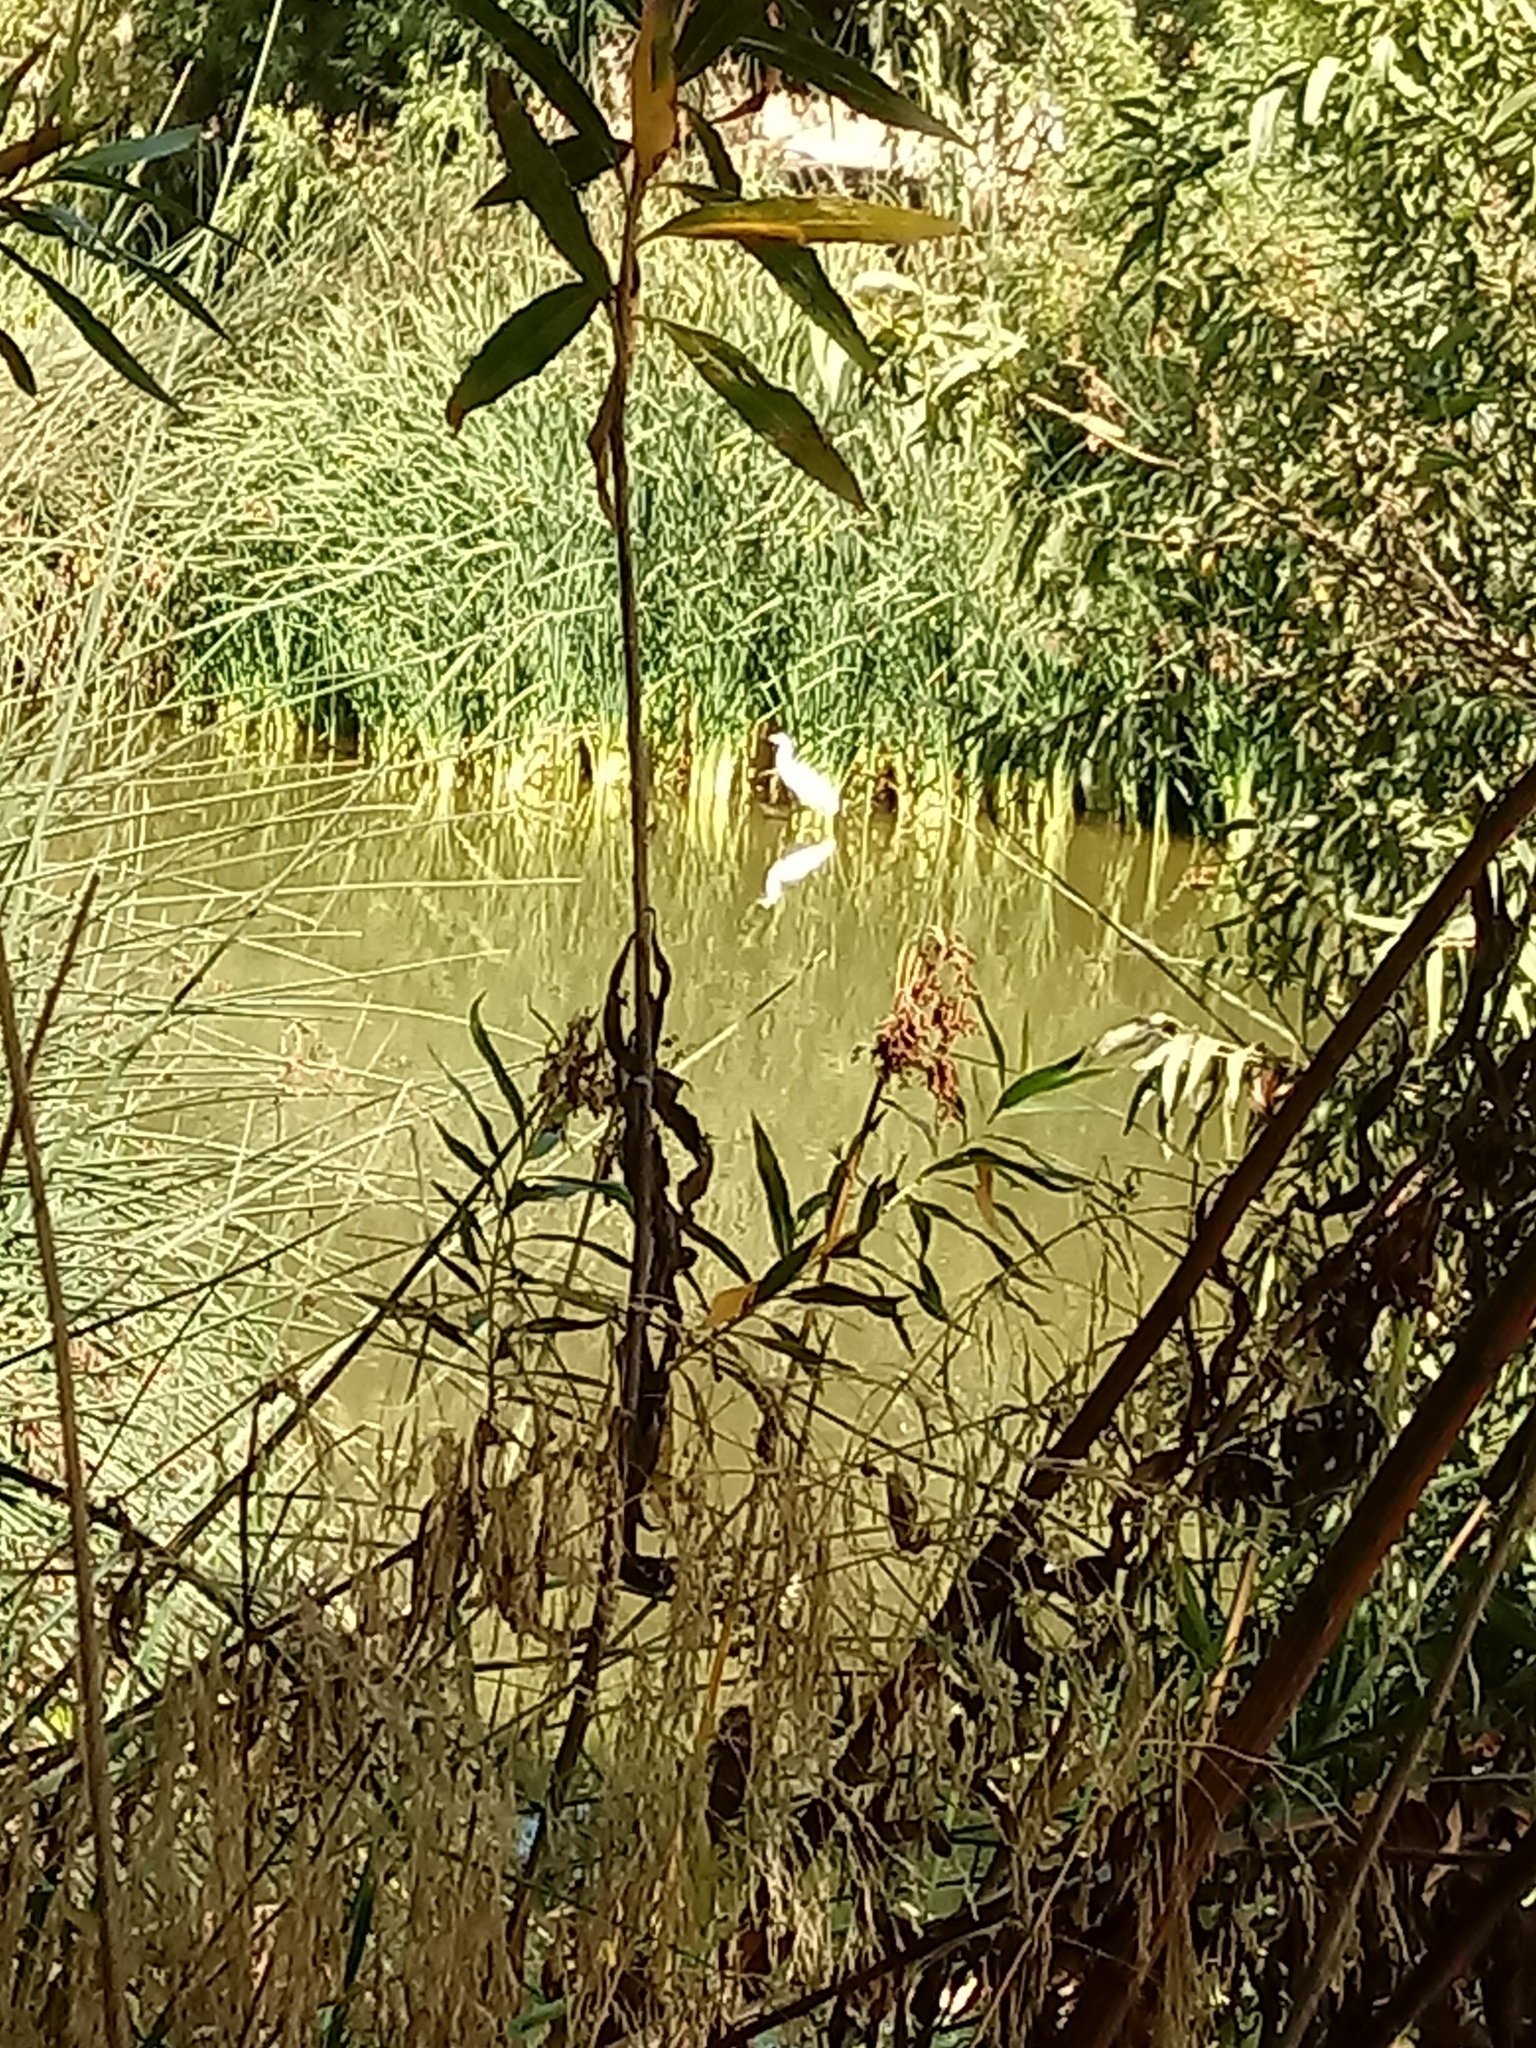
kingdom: Animalia
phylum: Chordata
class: Aves
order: Pelecaniformes
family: Ardeidae
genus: Ardea
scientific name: Ardea alba
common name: Great egret
